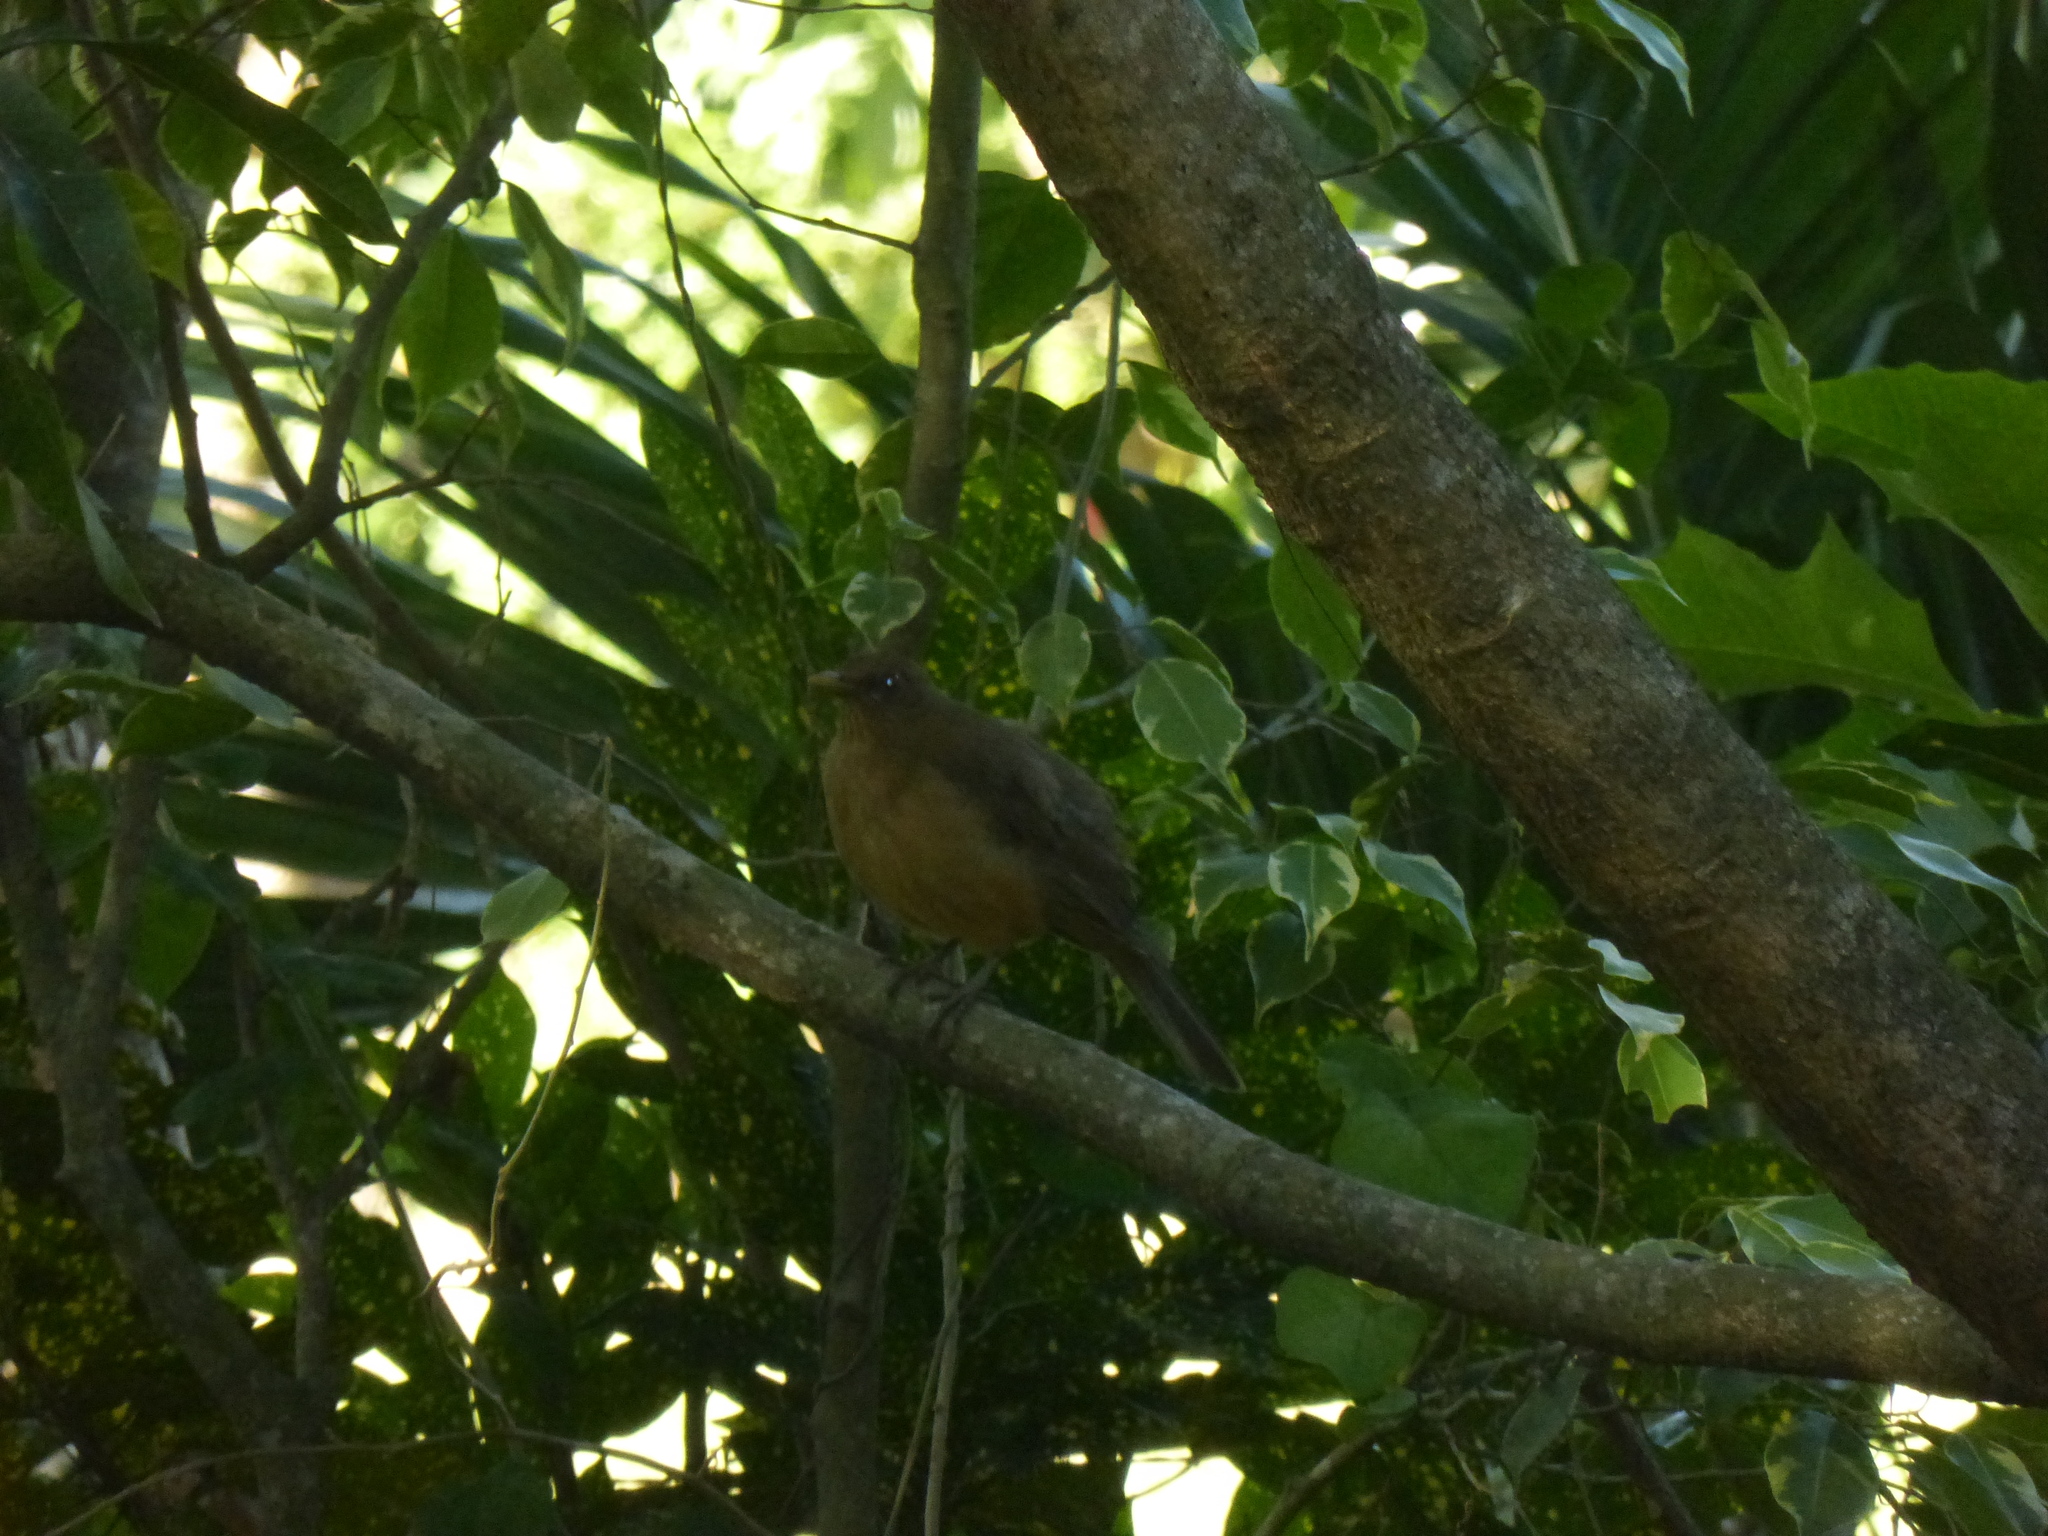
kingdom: Animalia
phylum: Chordata
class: Aves
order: Passeriformes
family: Turdidae
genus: Turdus
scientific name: Turdus grayi
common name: Clay-colored thrush
